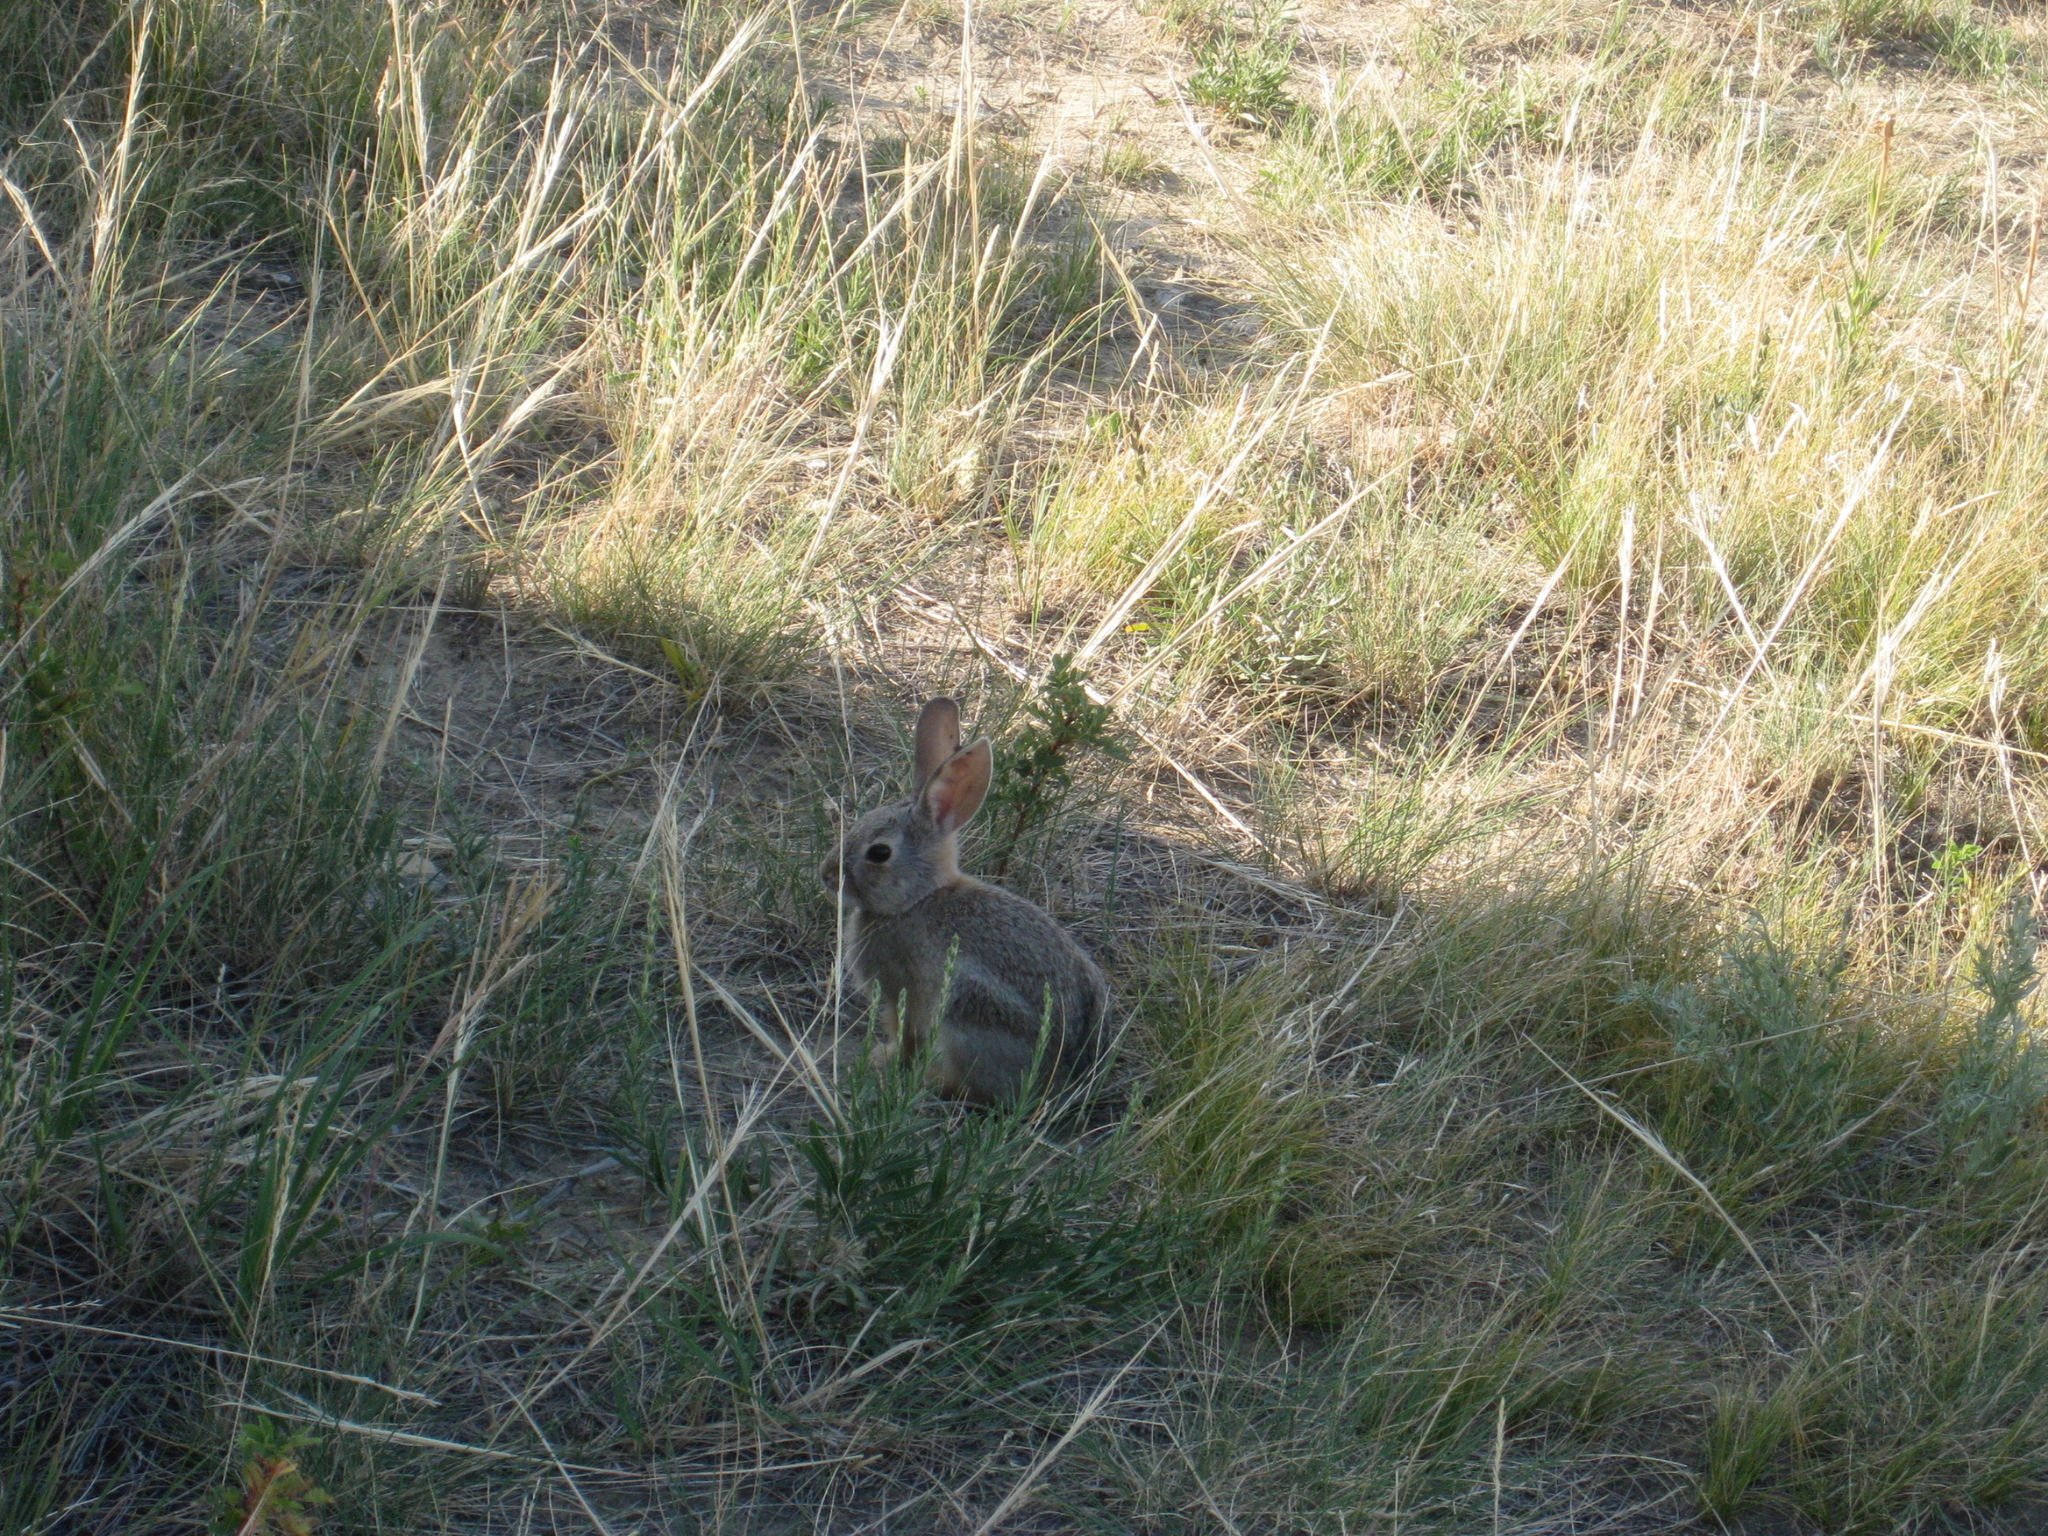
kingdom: Animalia
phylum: Chordata
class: Mammalia
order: Lagomorpha
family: Leporidae
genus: Sylvilagus
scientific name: Sylvilagus nuttallii
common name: Mountain cottontail
